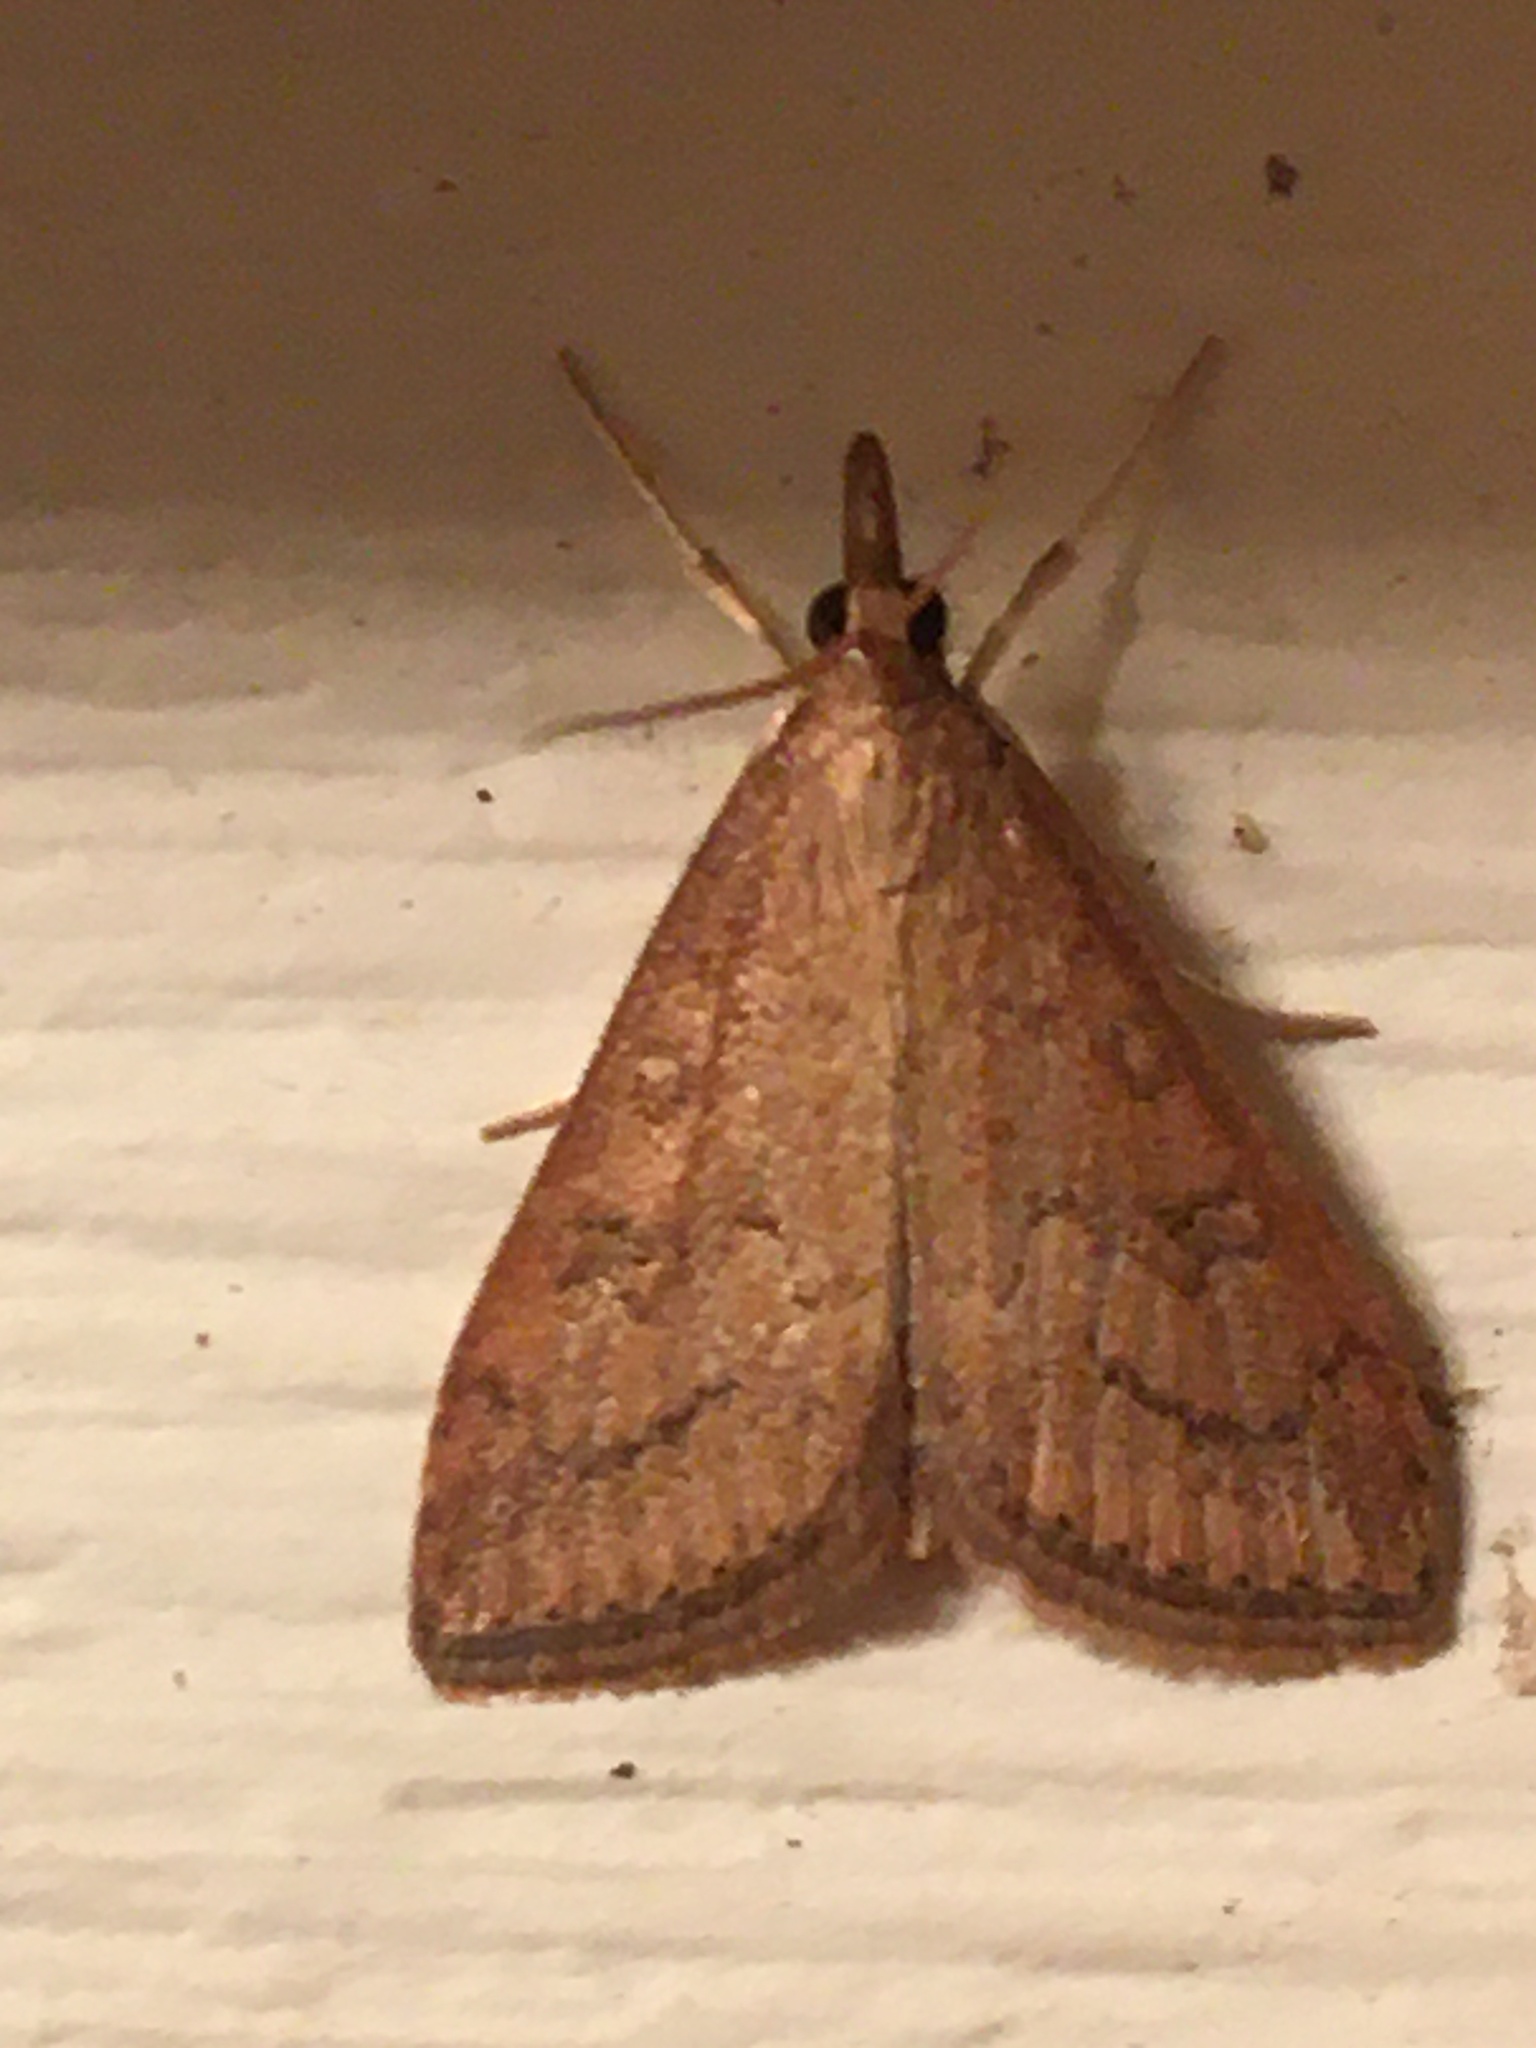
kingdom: Animalia
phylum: Arthropoda
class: Insecta
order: Lepidoptera
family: Crambidae
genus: Udea
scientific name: Udea rubigalis
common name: Celery leaftier moth
